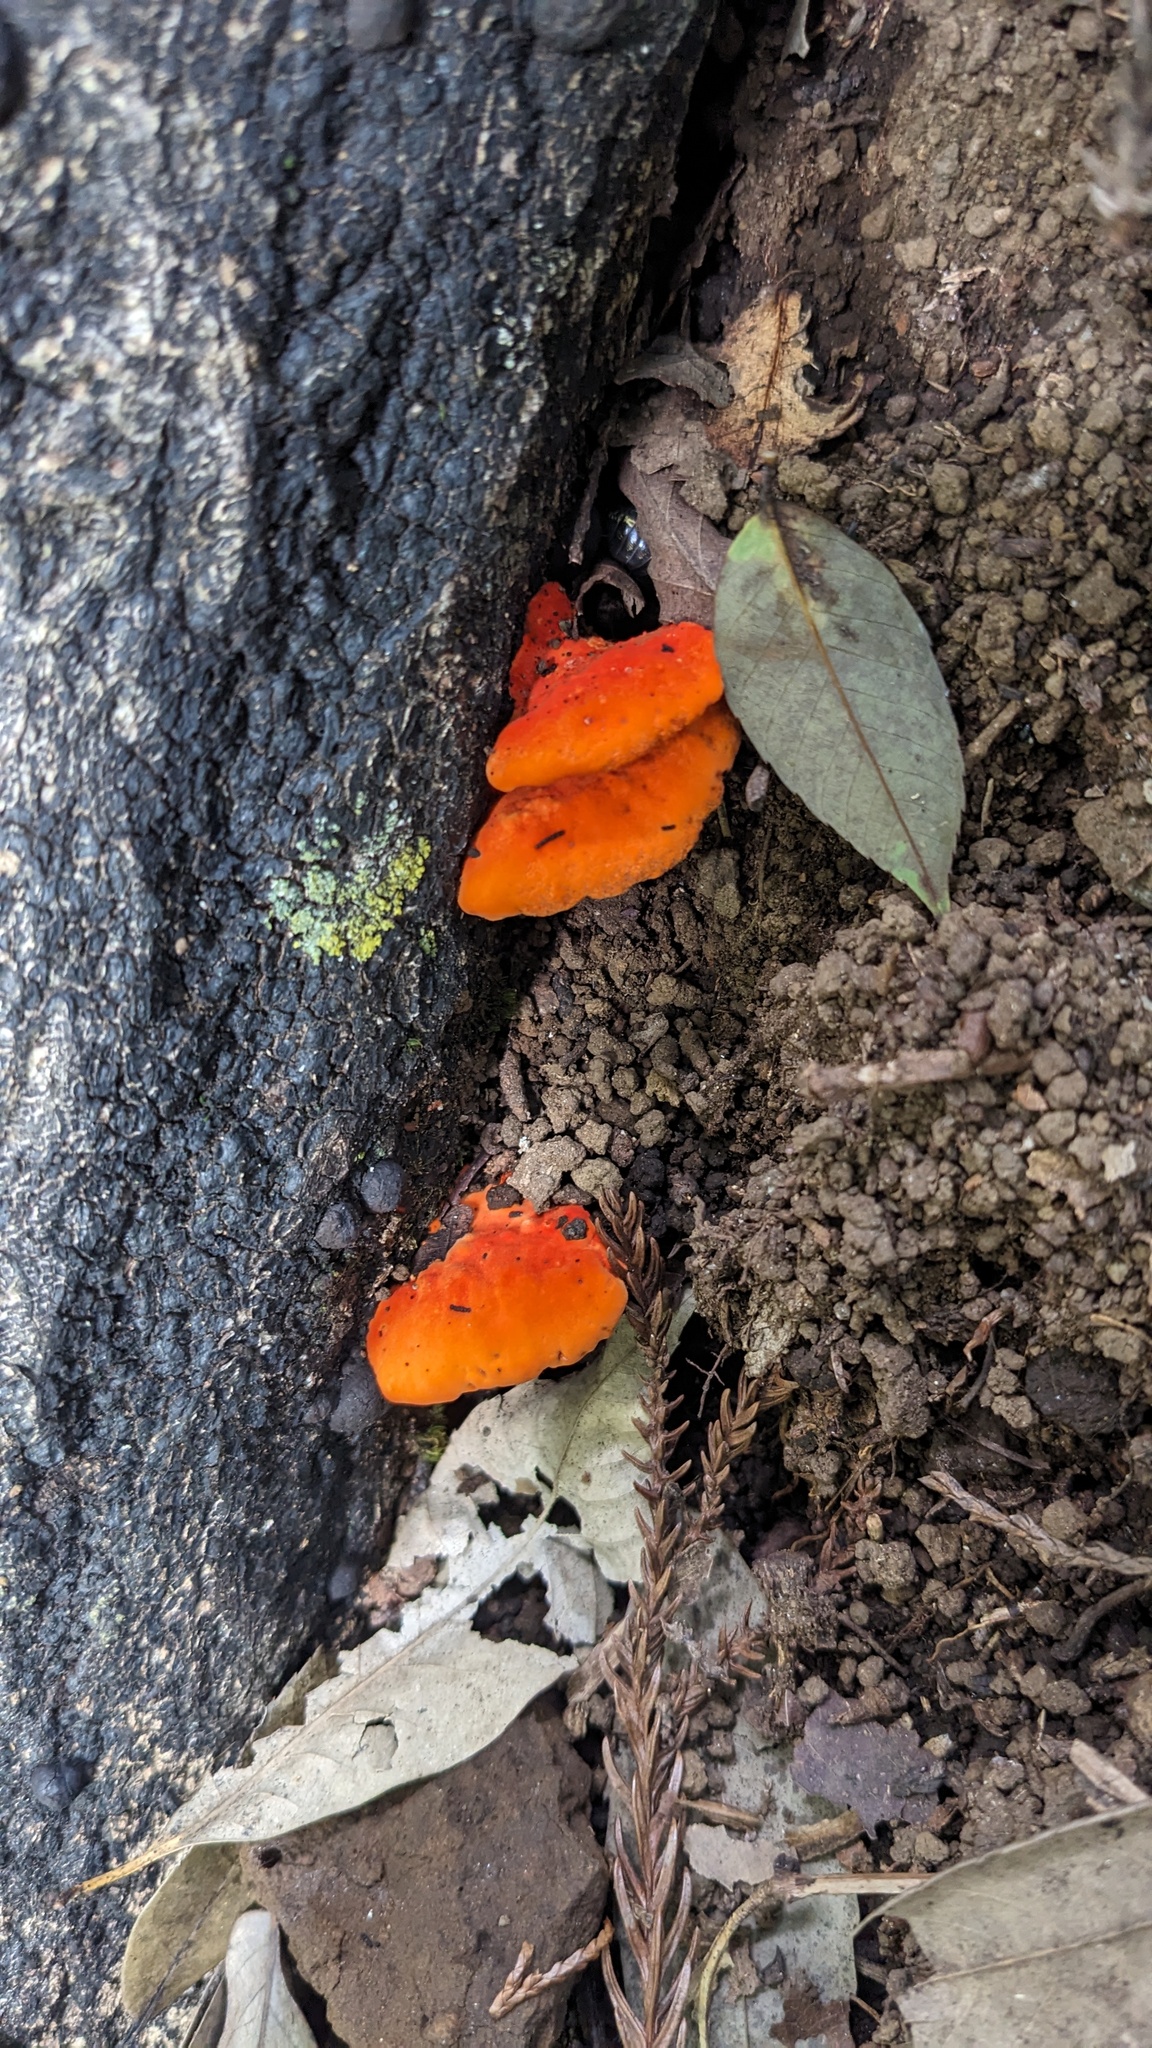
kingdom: Fungi
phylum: Basidiomycota
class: Agaricomycetes
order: Polyporales
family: Polyporaceae
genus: Trametes
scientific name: Trametes coccinea
